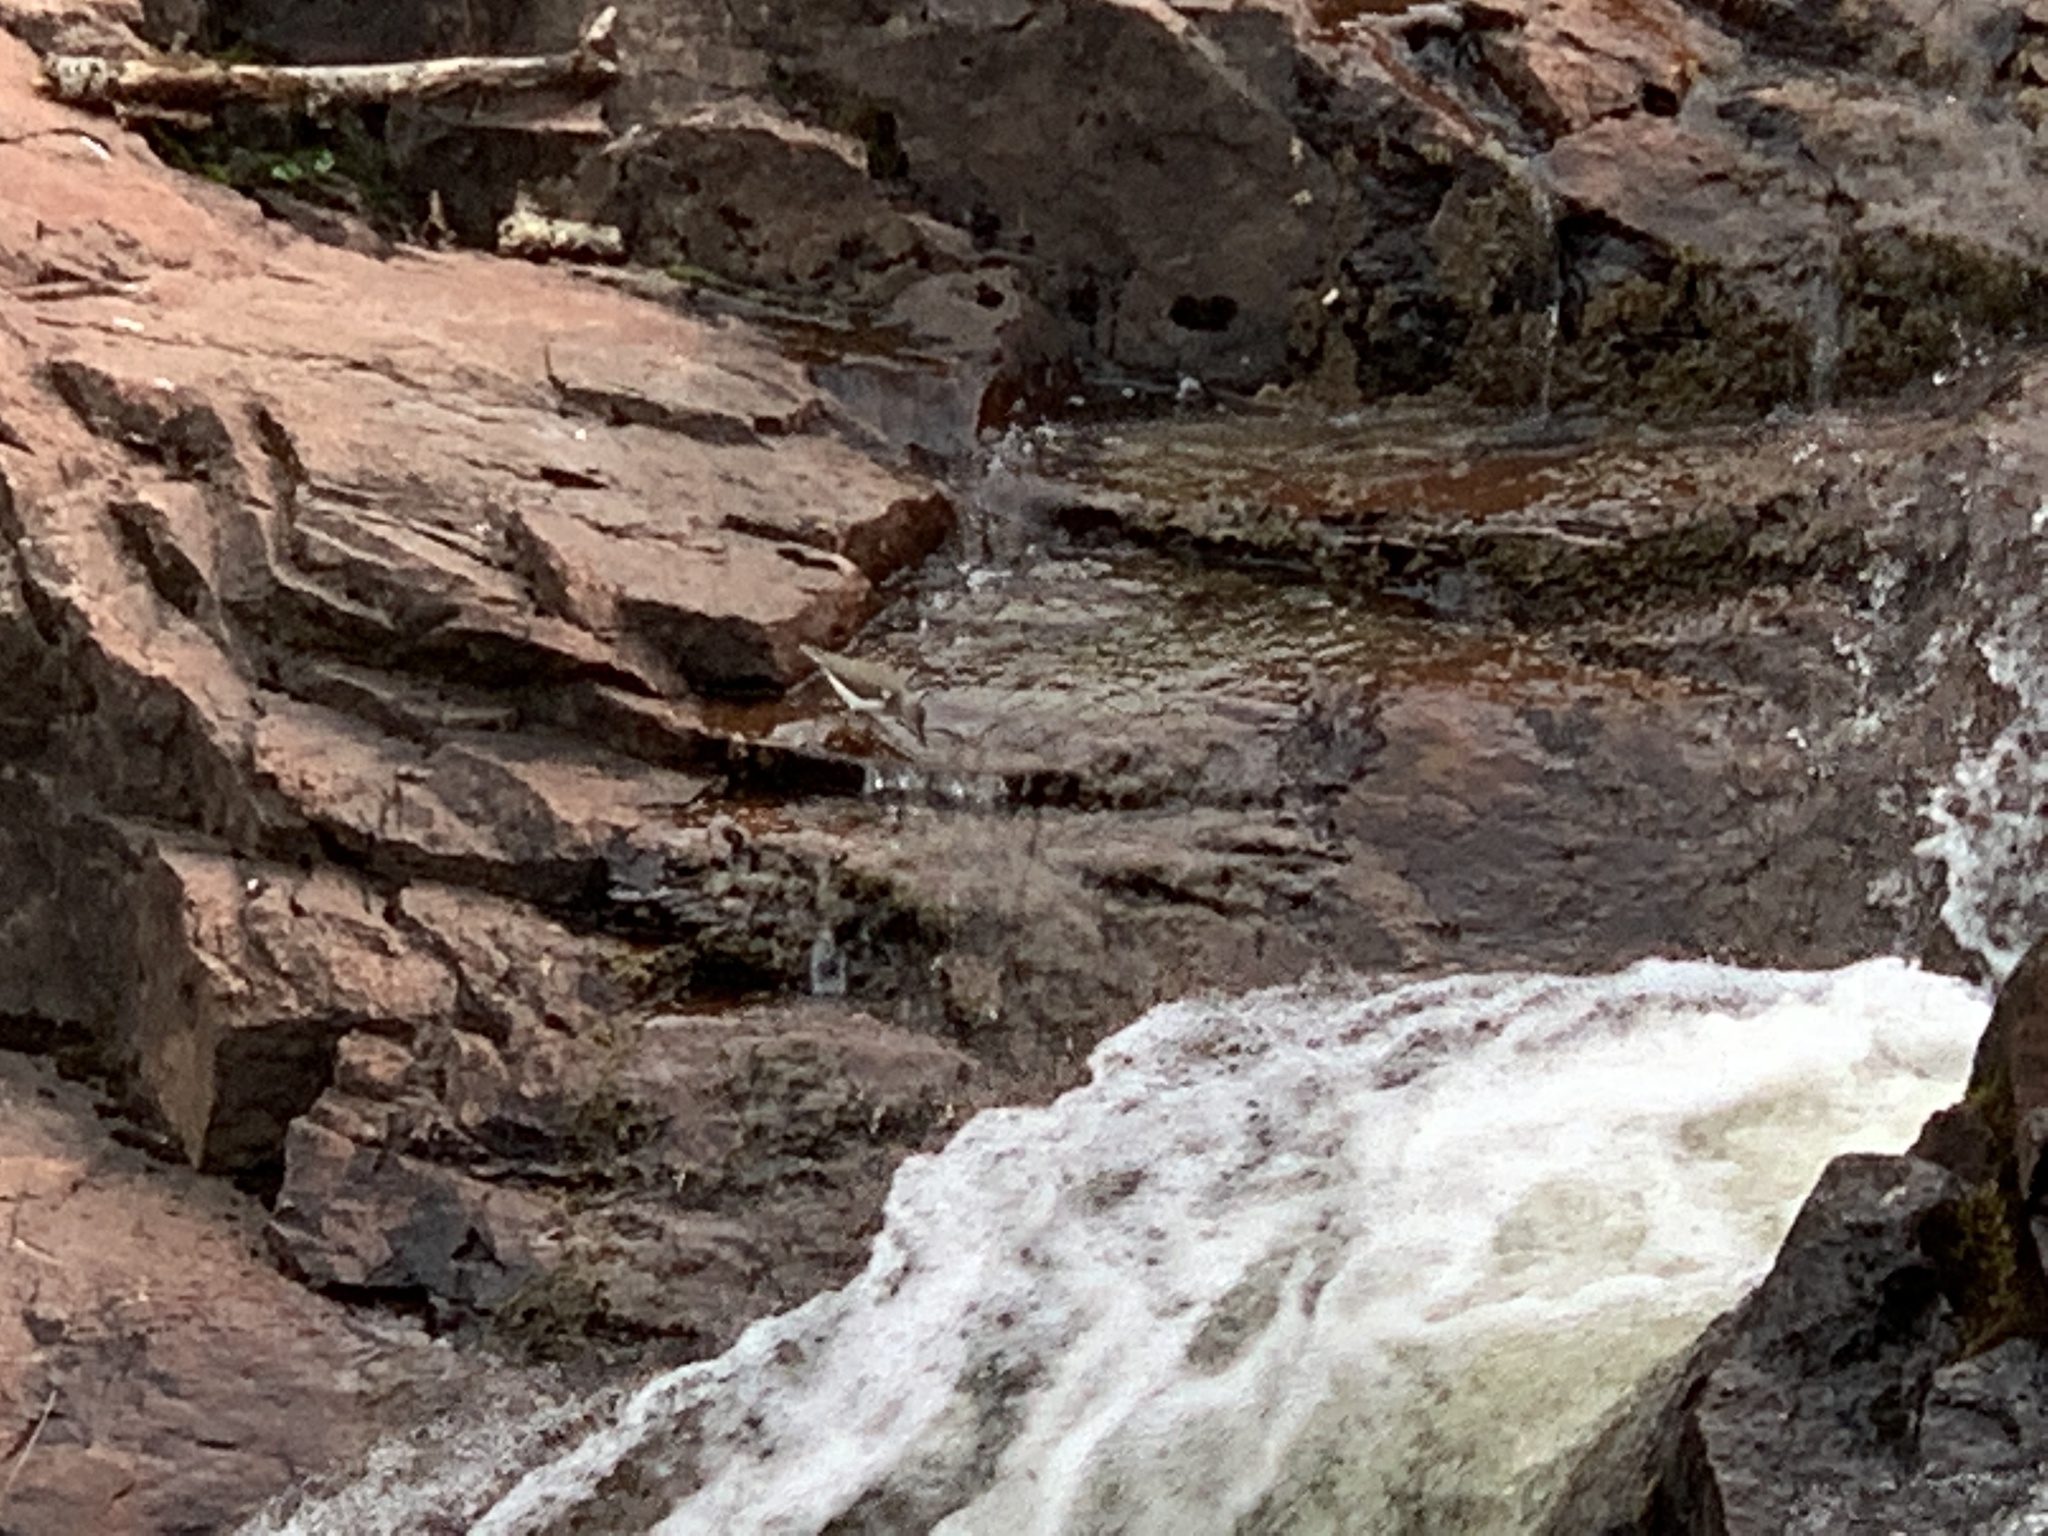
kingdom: Animalia
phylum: Chordata
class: Aves
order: Charadriiformes
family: Scolopacidae
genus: Actitis
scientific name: Actitis macularius
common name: Spotted sandpiper
